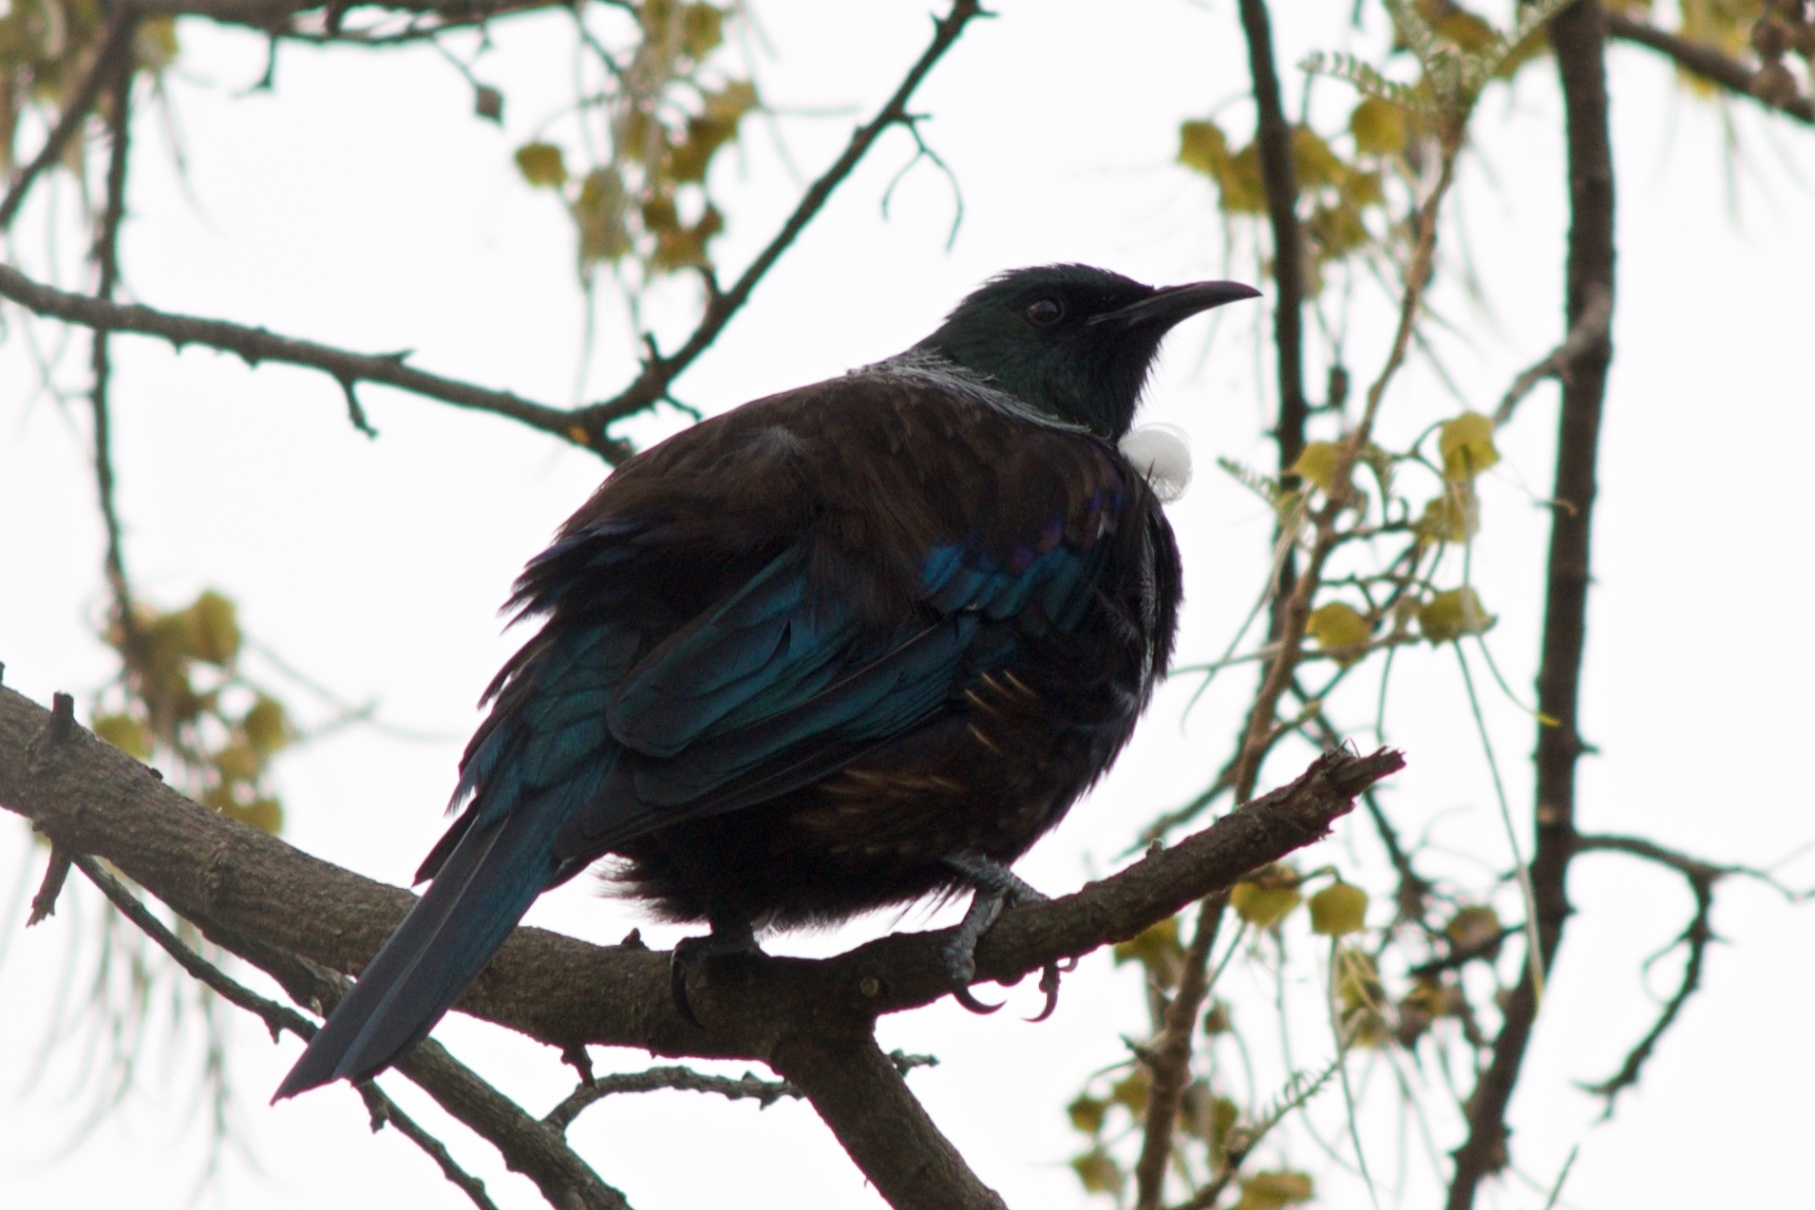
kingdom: Animalia
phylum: Chordata
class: Aves
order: Passeriformes
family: Meliphagidae
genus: Prosthemadera
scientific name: Prosthemadera novaeseelandiae
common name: Tui
